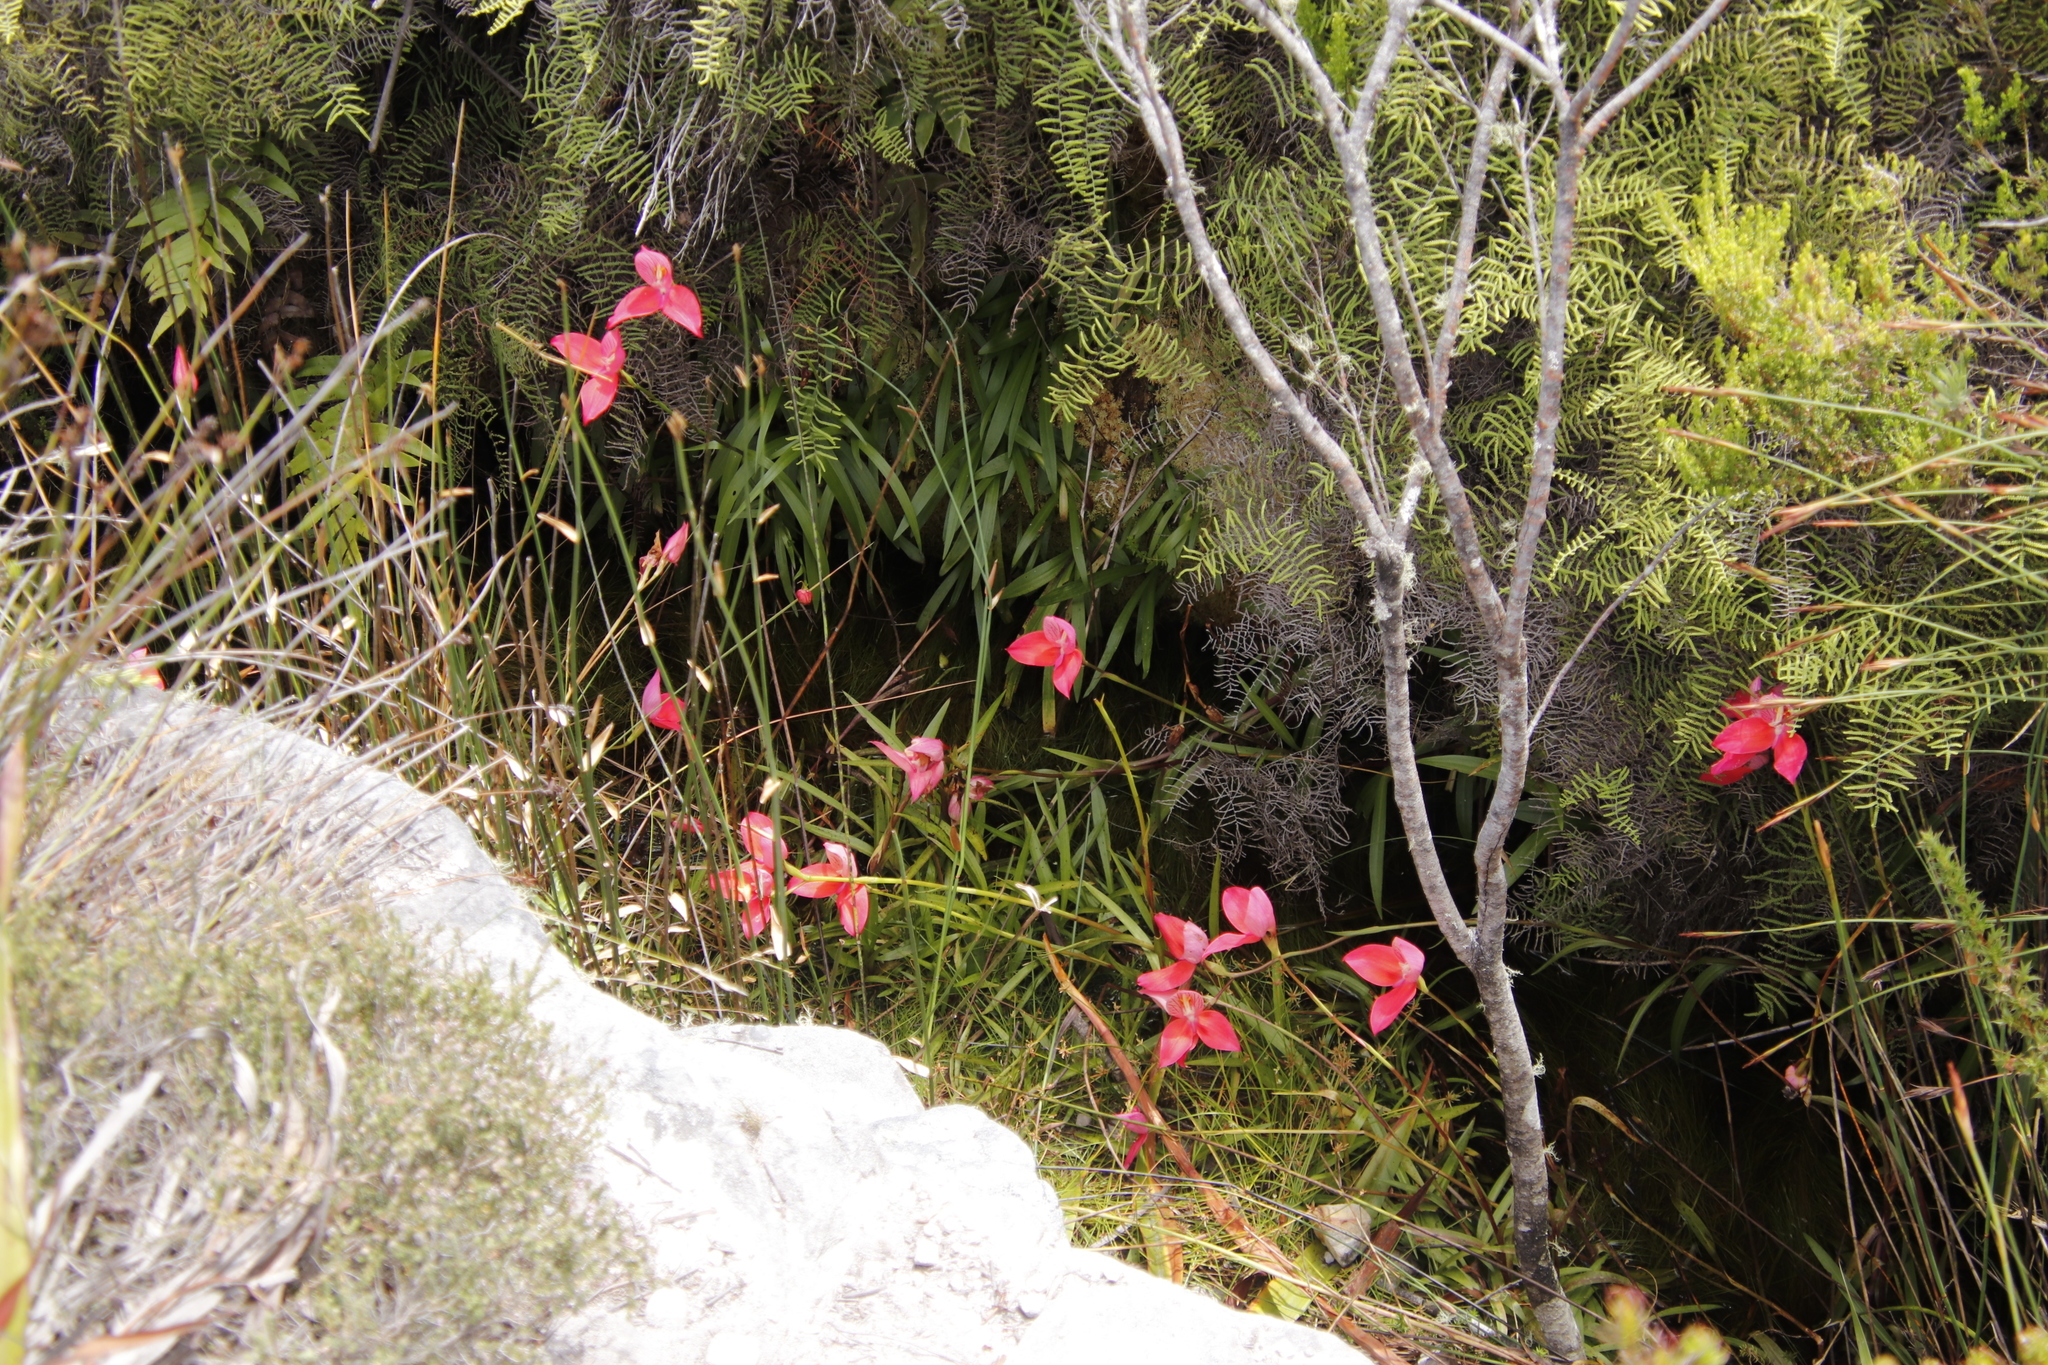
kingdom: Plantae
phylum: Tracheophyta
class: Liliopsida
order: Asparagales
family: Orchidaceae
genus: Disa
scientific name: Disa uniflora
